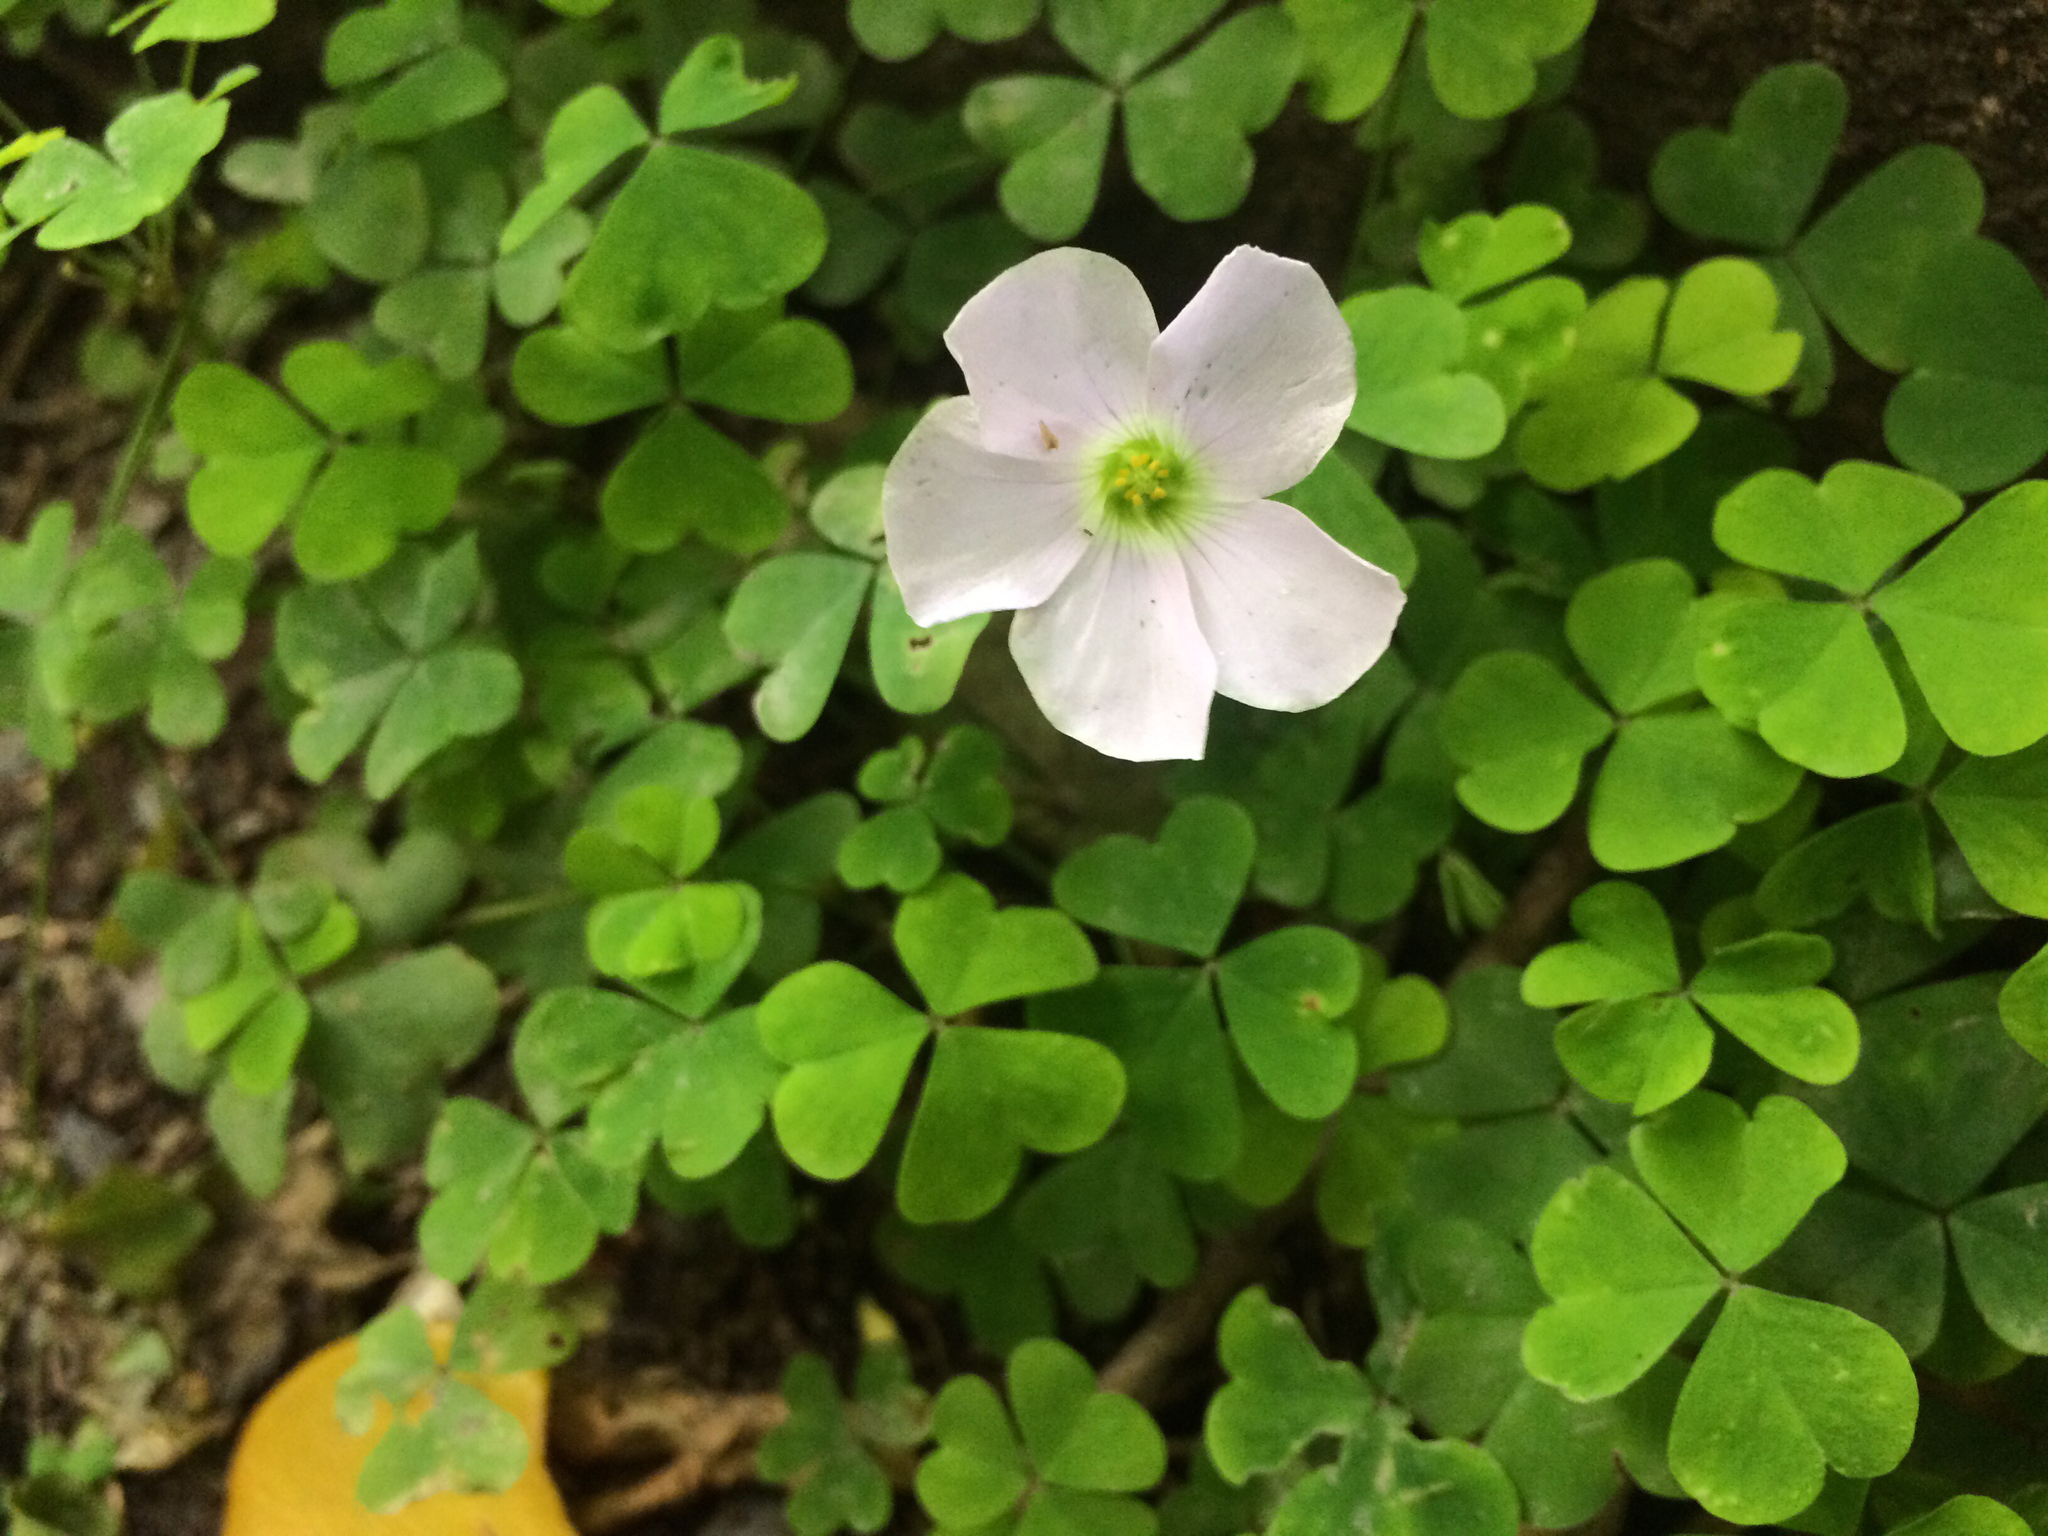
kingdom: Plantae
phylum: Tracheophyta
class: Magnoliopsida
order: Oxalidales
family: Oxalidaceae
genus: Oxalis
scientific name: Oxalis incarnata
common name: Pale pink-sorrel
